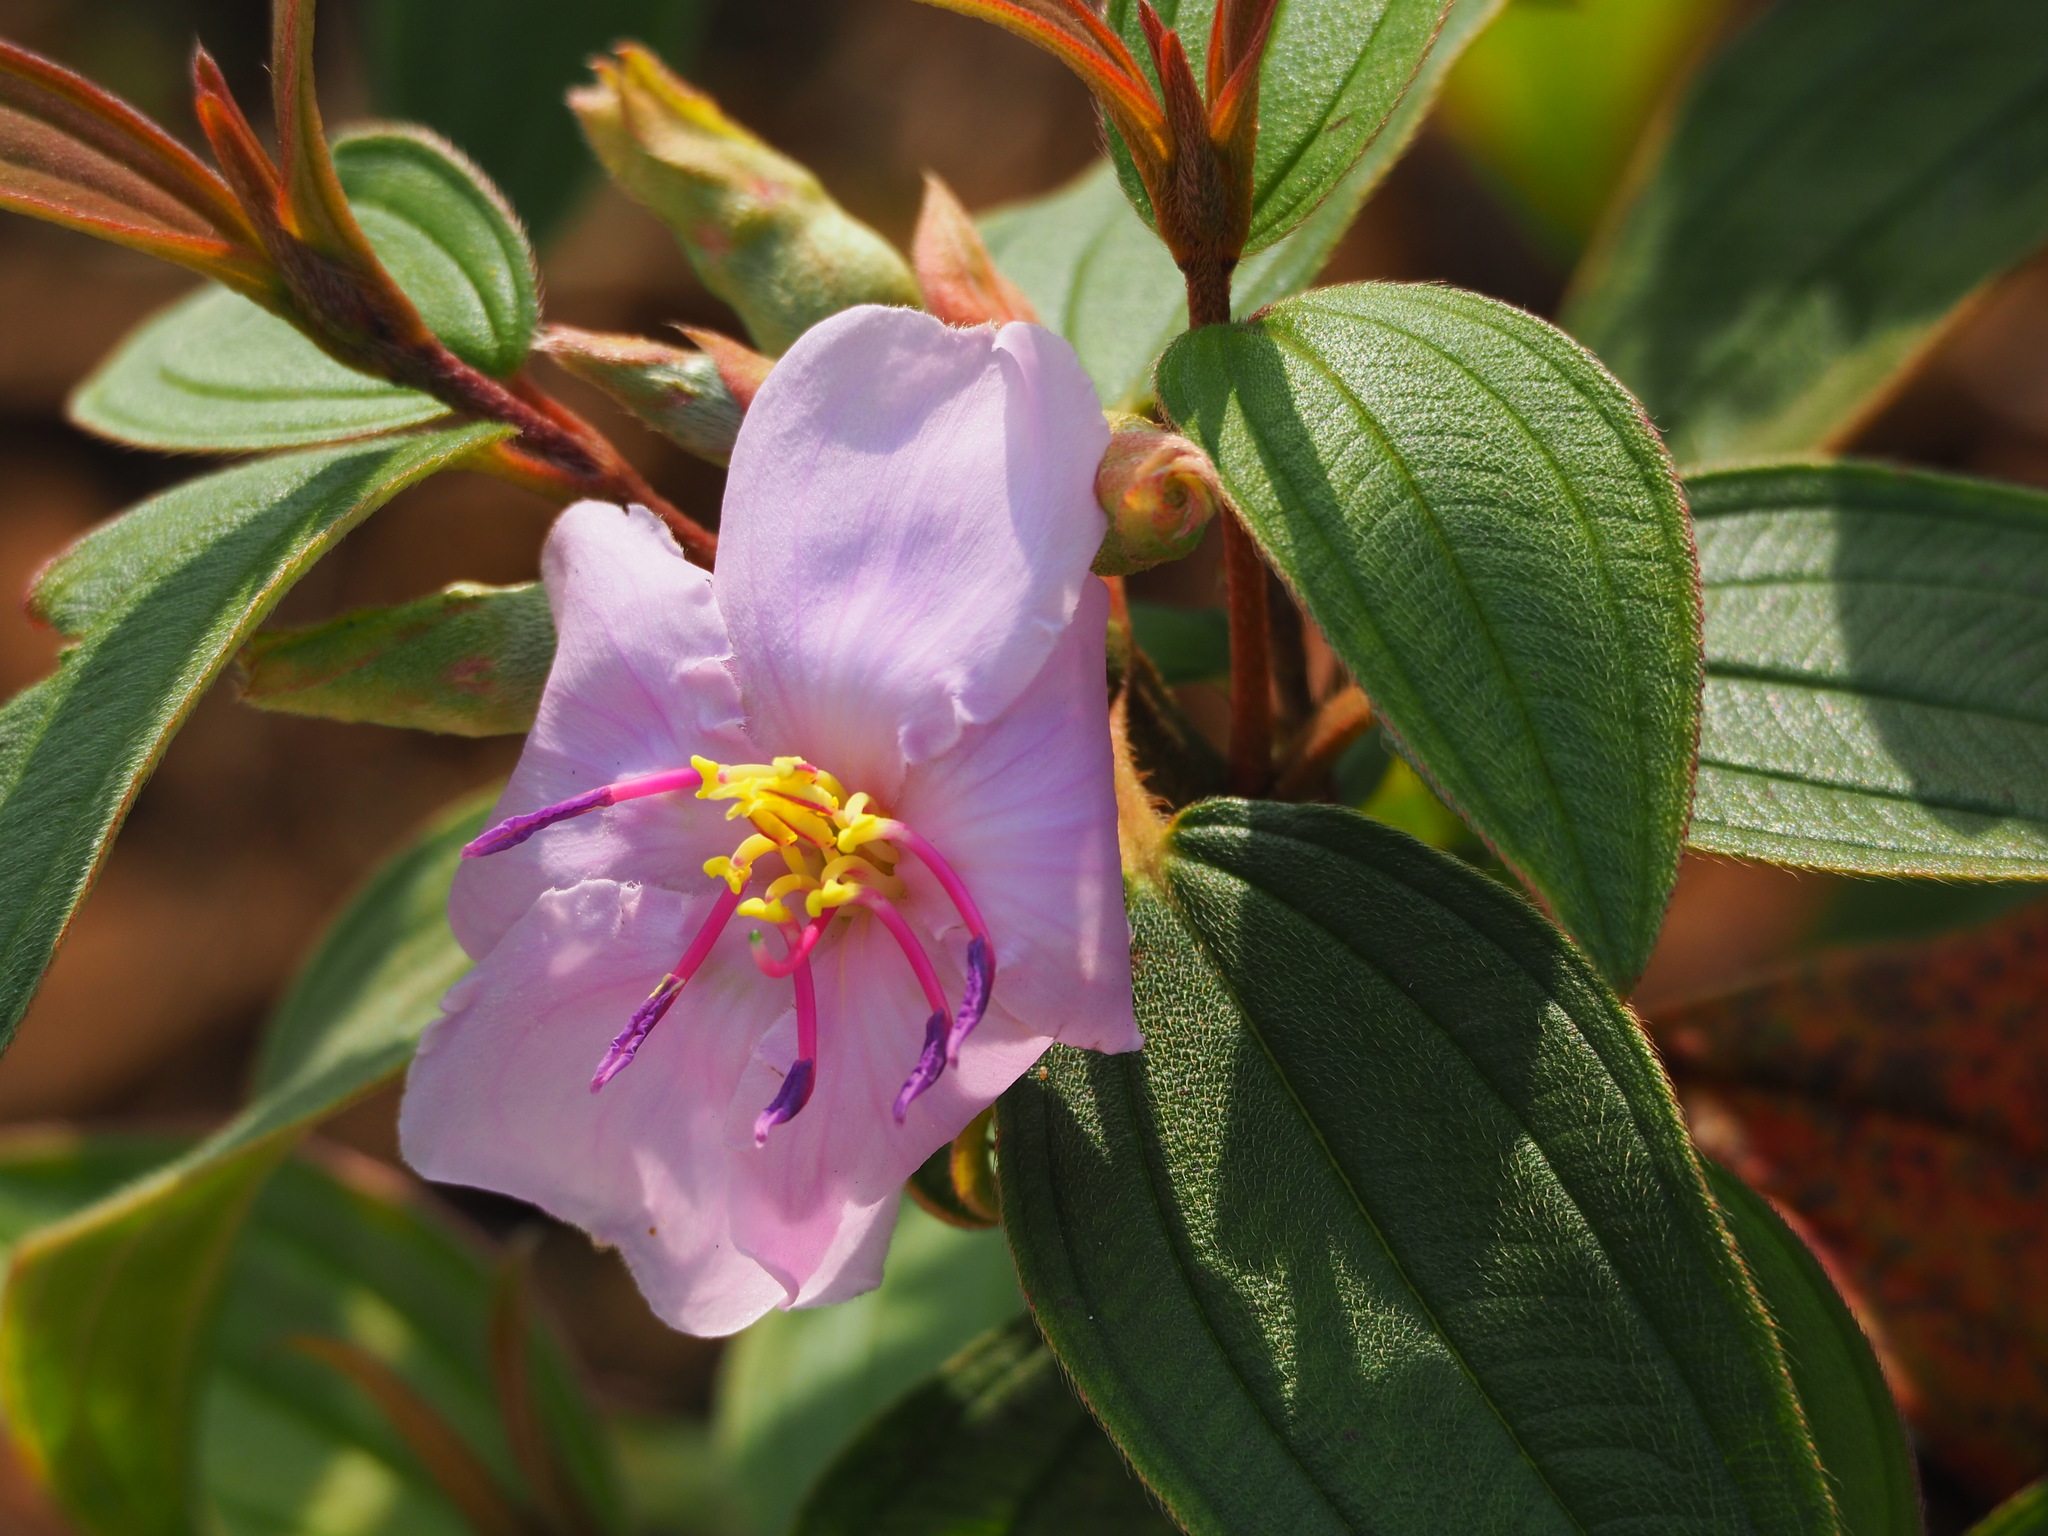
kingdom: Plantae
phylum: Tracheophyta
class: Magnoliopsida
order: Myrtales
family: Melastomataceae
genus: Melastoma
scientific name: Melastoma malabathricum
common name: Indian-rhododendron
